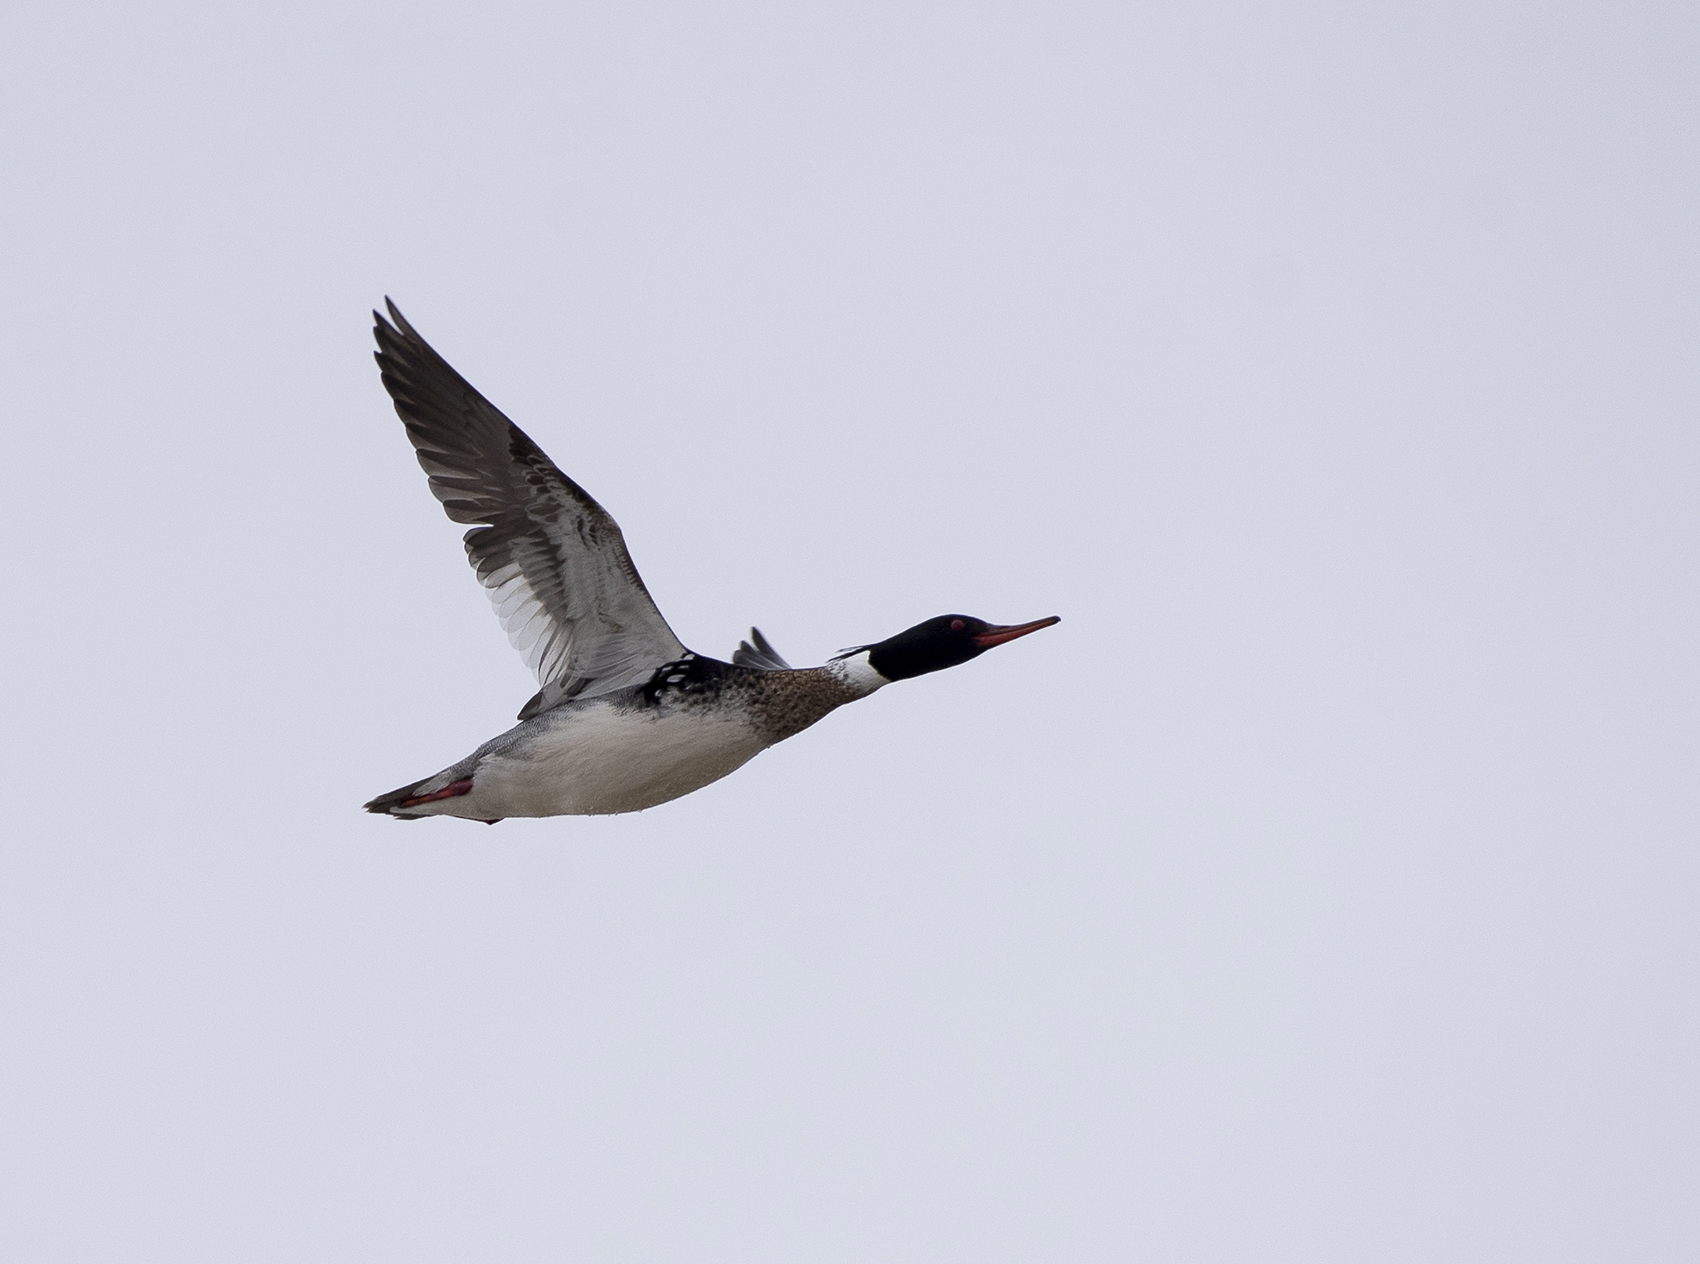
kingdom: Animalia
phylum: Chordata
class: Aves
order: Anseriformes
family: Anatidae
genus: Mergus
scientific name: Mergus serrator
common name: Red-breasted merganser
